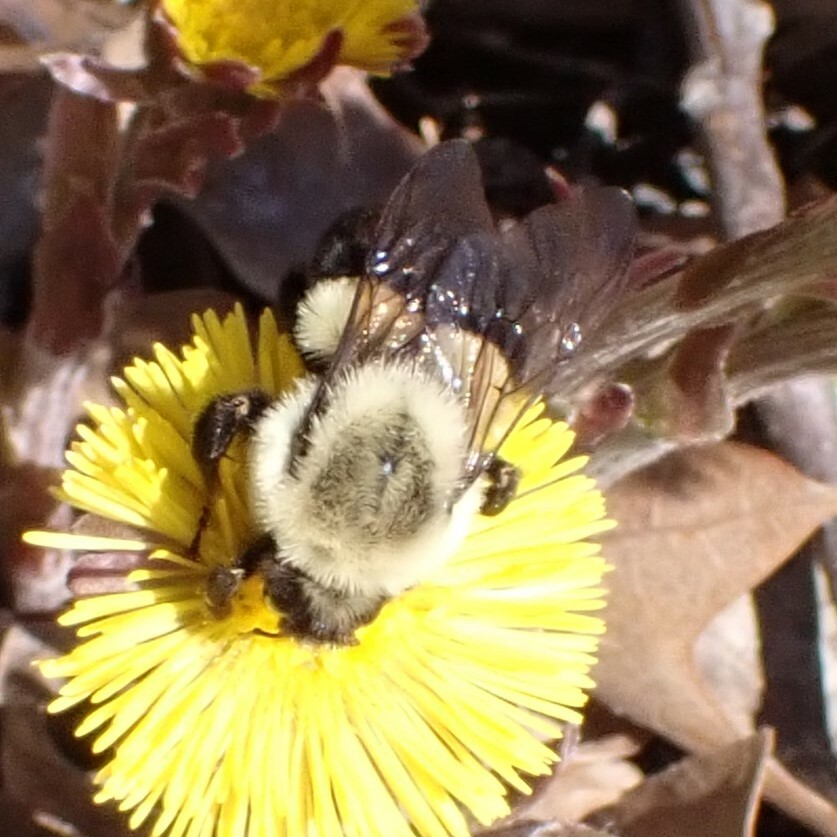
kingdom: Animalia
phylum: Arthropoda
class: Insecta
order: Hymenoptera
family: Apidae
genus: Bombus
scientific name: Bombus impatiens
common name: Common eastern bumble bee
